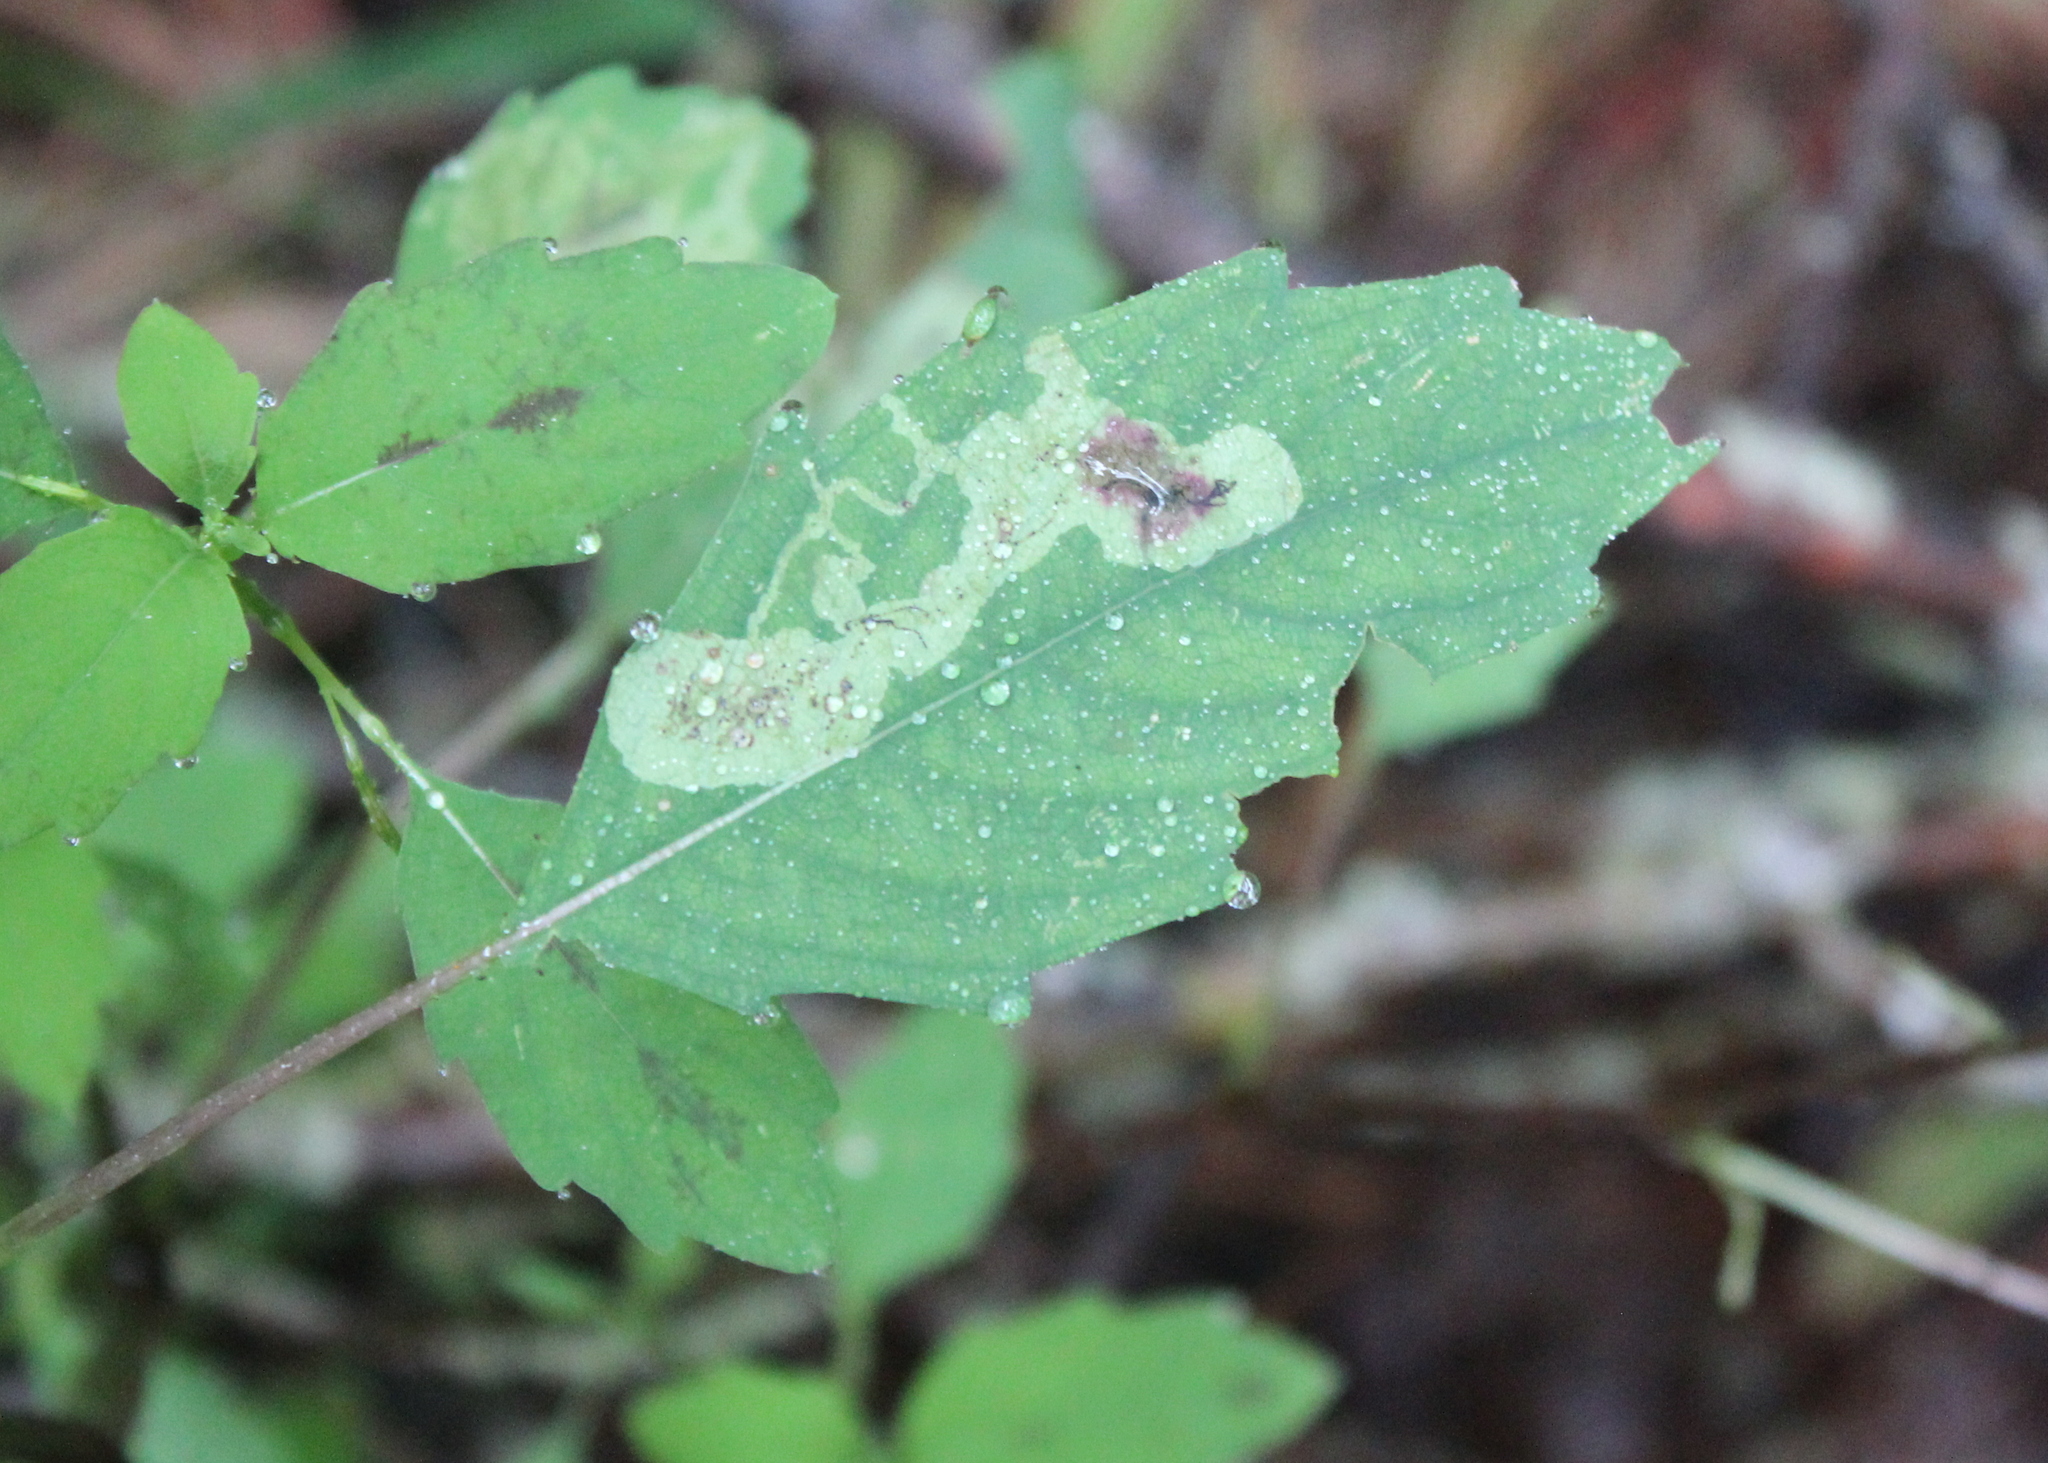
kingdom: Animalia
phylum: Arthropoda
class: Insecta
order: Diptera
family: Agromyzidae
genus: Phytoliriomyza
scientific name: Phytoliriomyza melampyga
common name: Jewelweed leaf-miner fly
